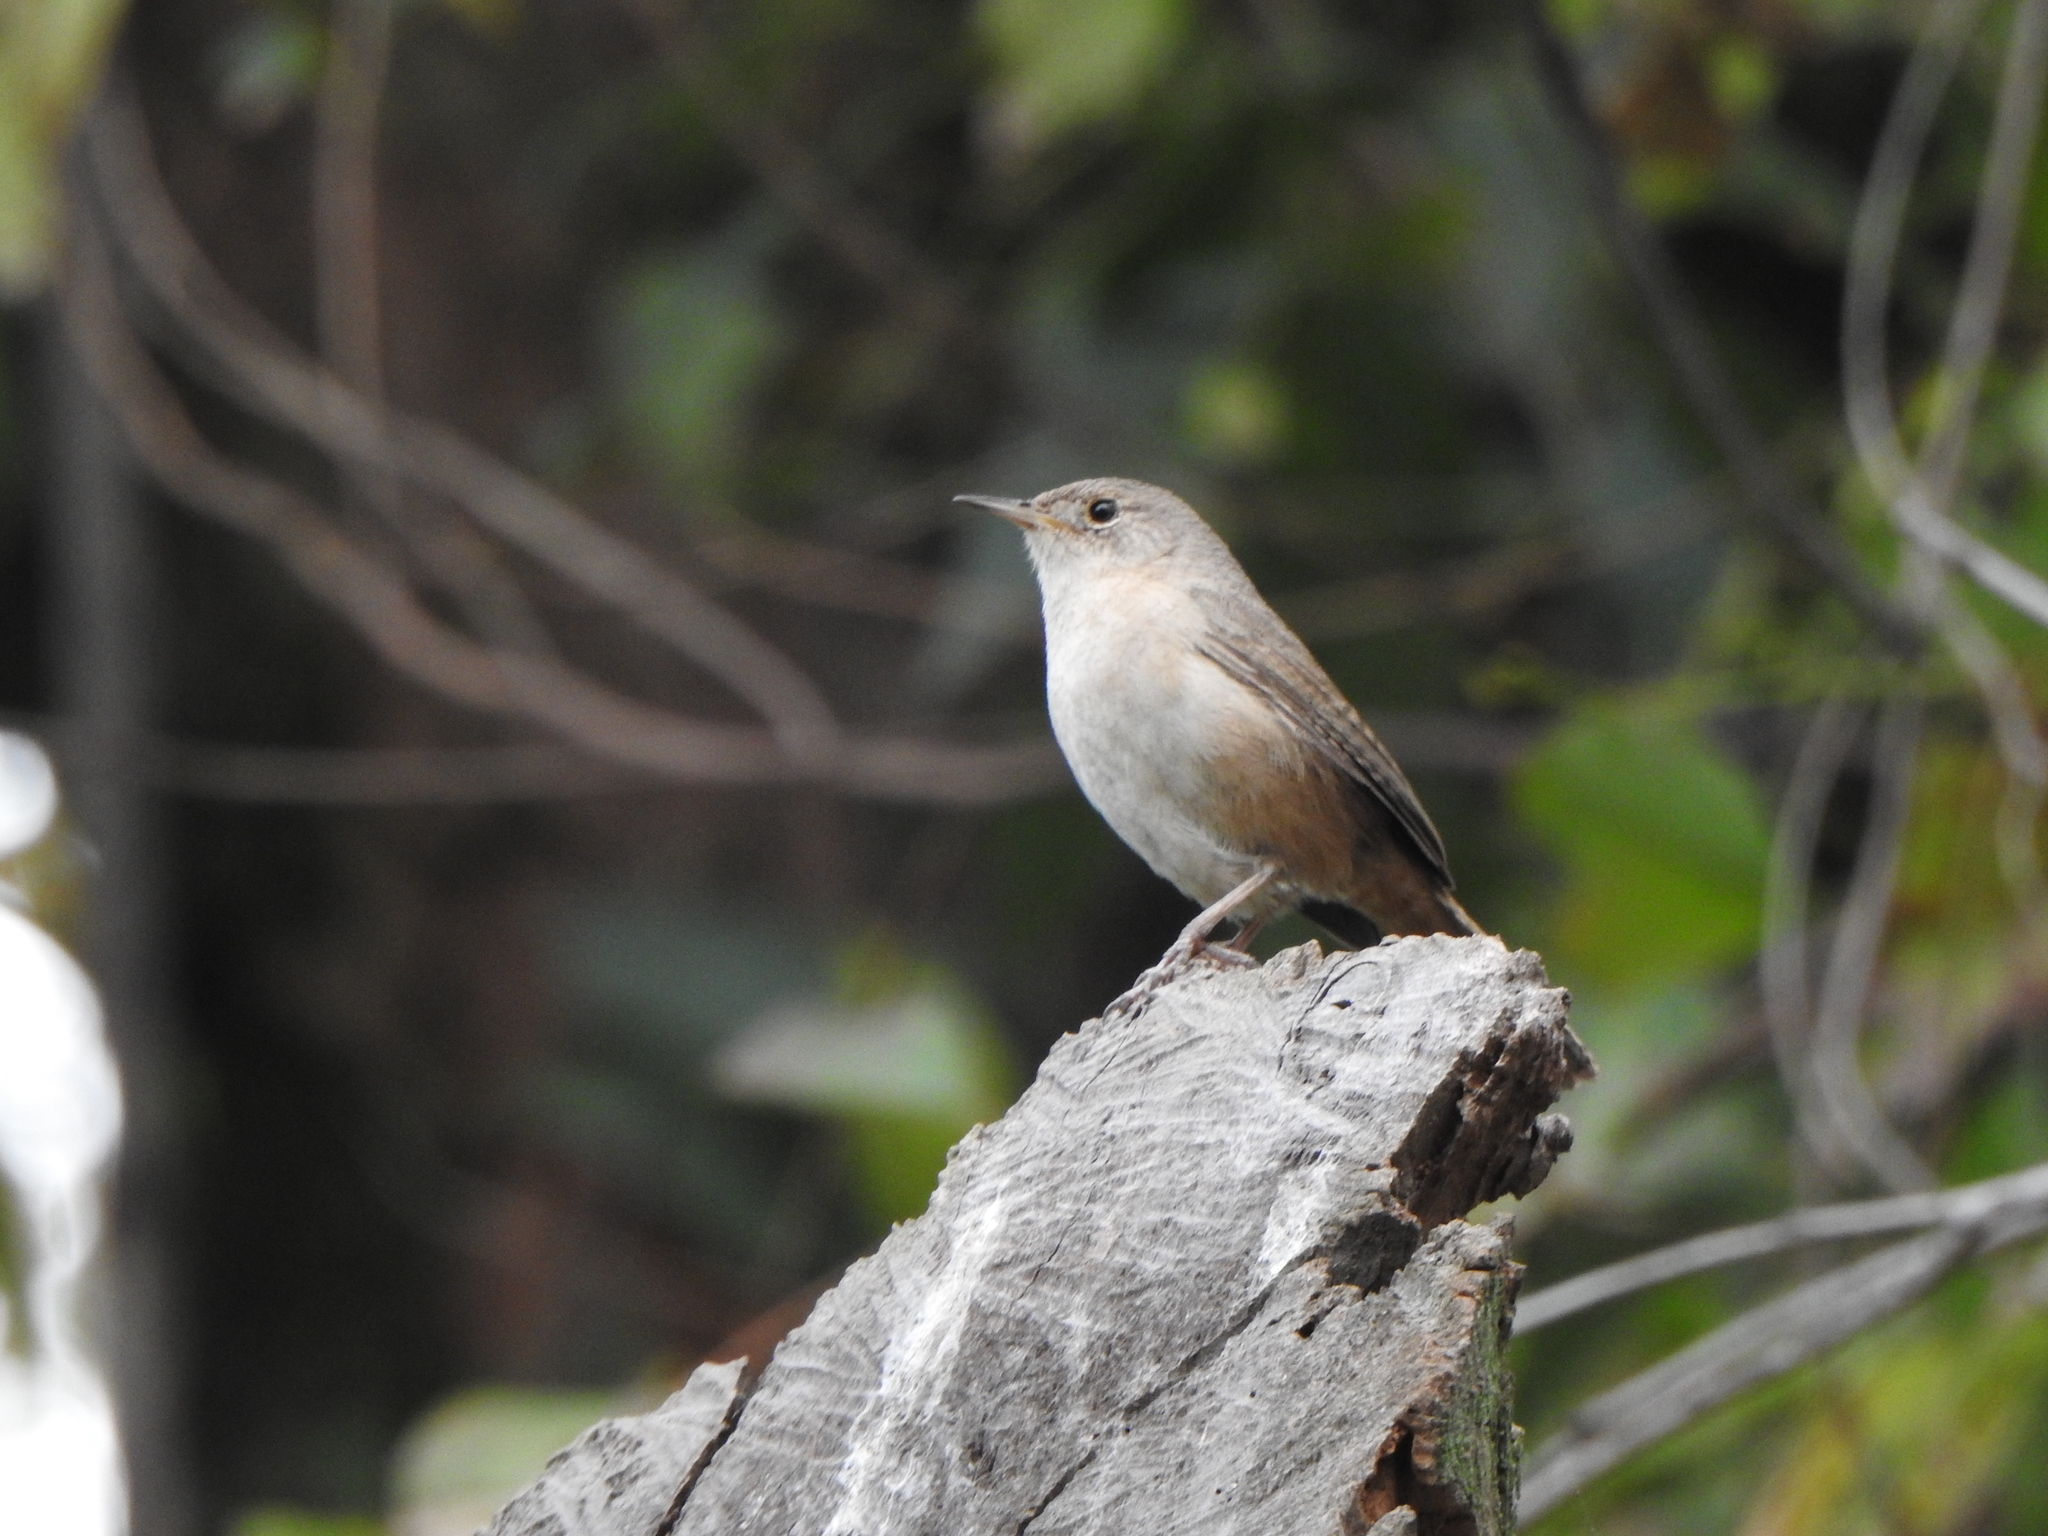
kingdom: Animalia
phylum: Chordata
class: Aves
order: Passeriformes
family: Troglodytidae
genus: Troglodytes
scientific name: Troglodytes aedon
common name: House wren
